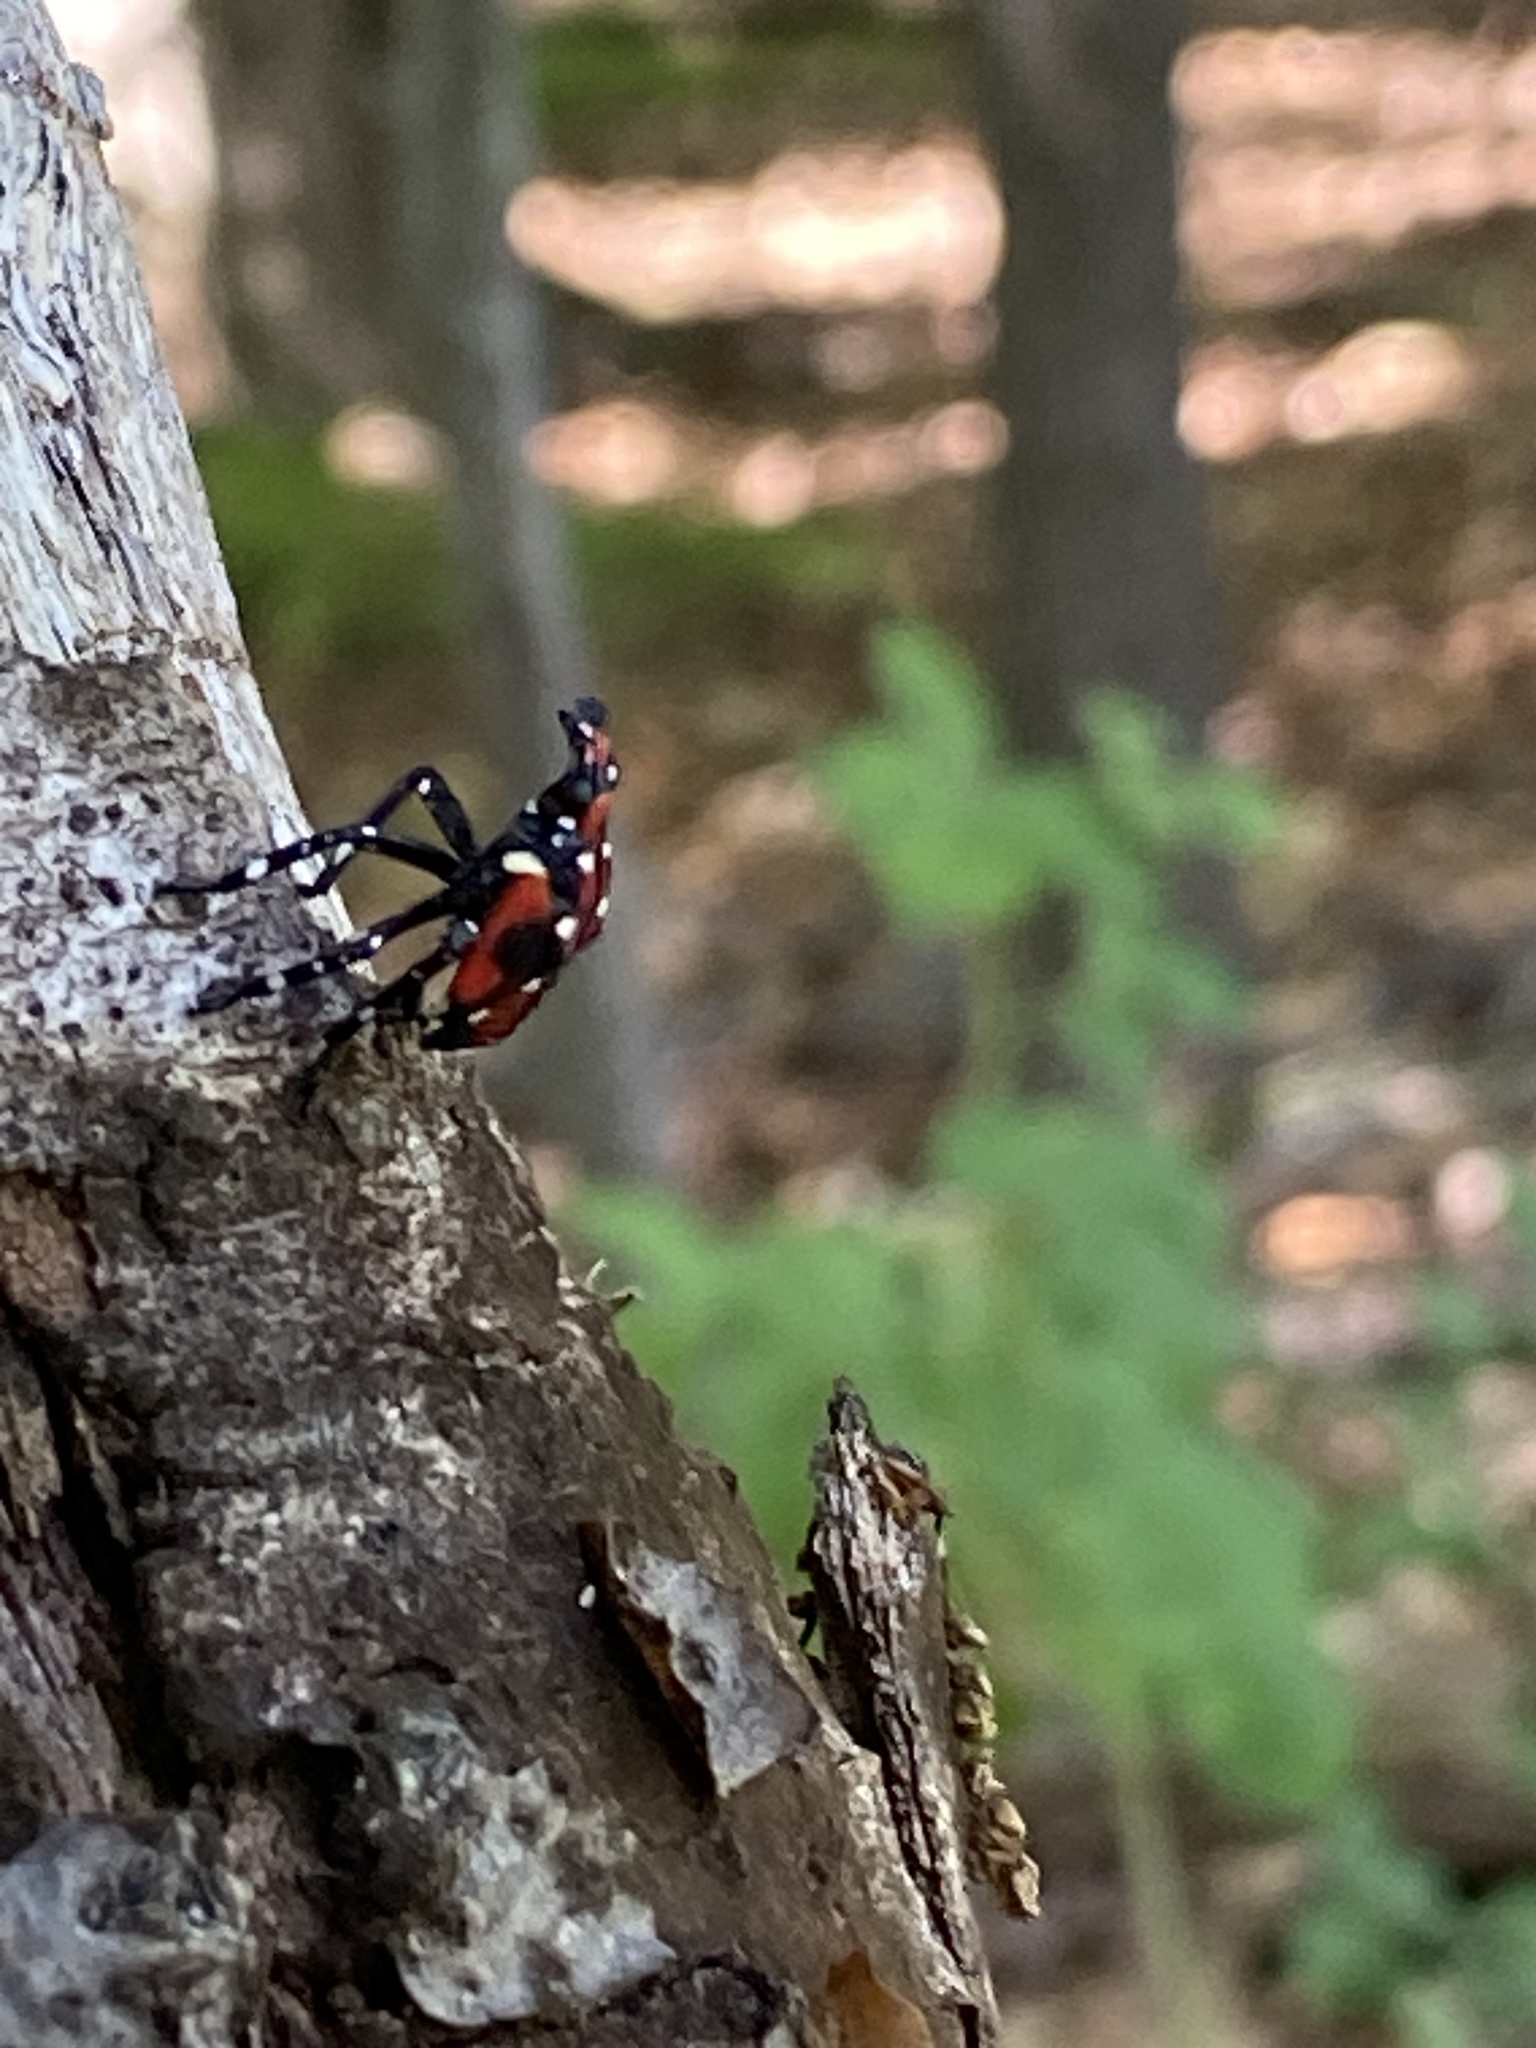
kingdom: Animalia
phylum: Arthropoda
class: Insecta
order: Hemiptera
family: Fulgoridae
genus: Lycorma
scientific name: Lycorma delicatula
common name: Spotted lanternfly
